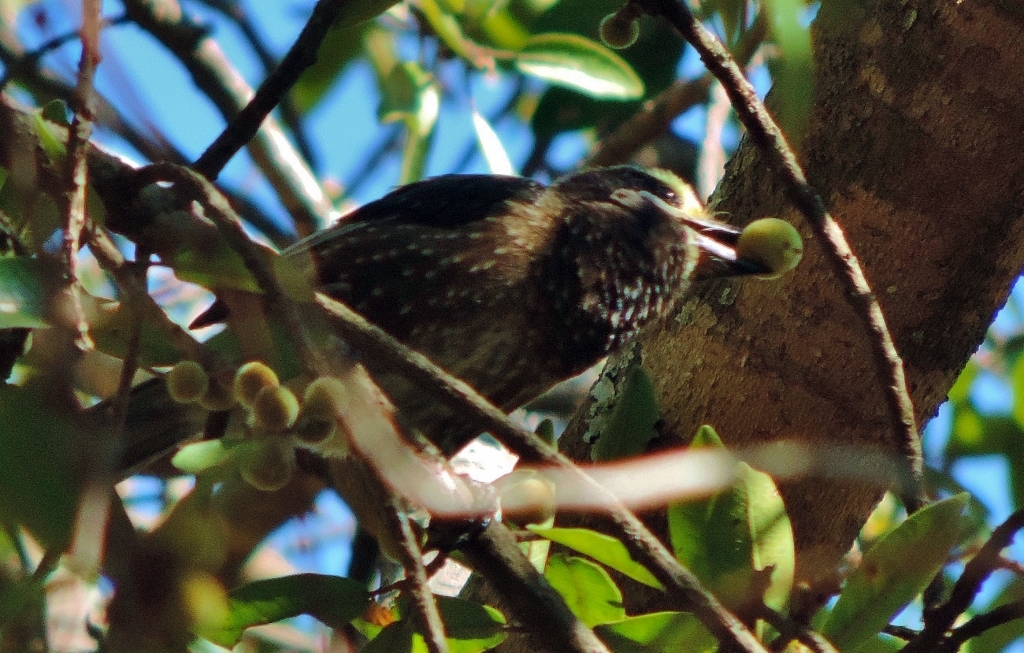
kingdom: Animalia
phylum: Chordata
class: Aves
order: Piciformes
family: Lybiidae
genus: Stactolaema
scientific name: Stactolaema whytii
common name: Whyte's barbet
